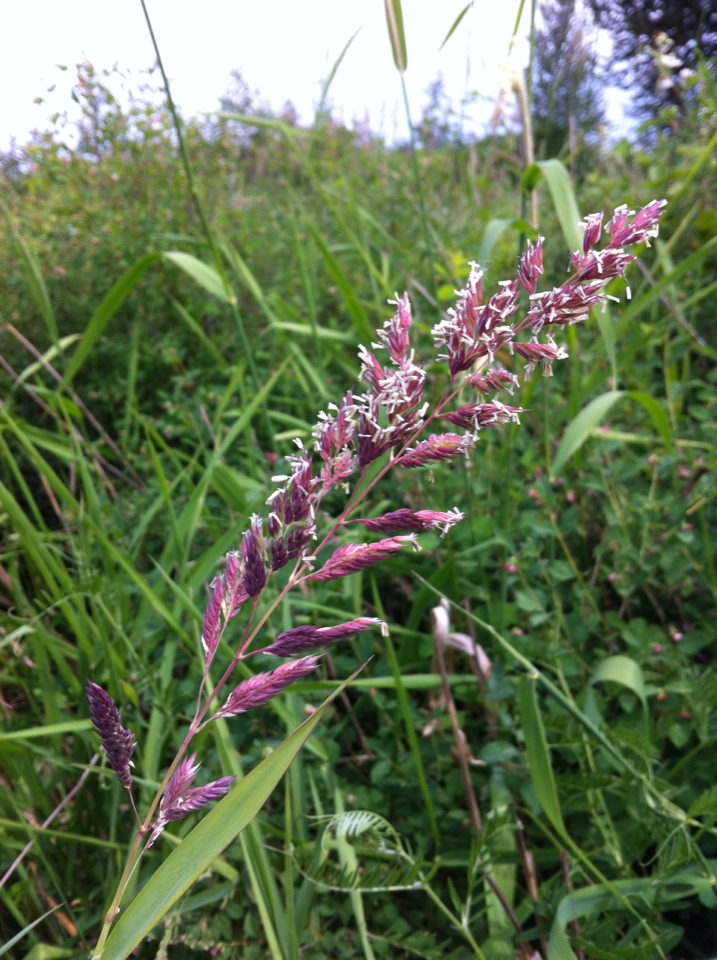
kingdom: Plantae
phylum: Tracheophyta
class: Liliopsida
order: Poales
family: Poaceae
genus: Phalaris
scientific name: Phalaris arundinacea
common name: Reed canary-grass
